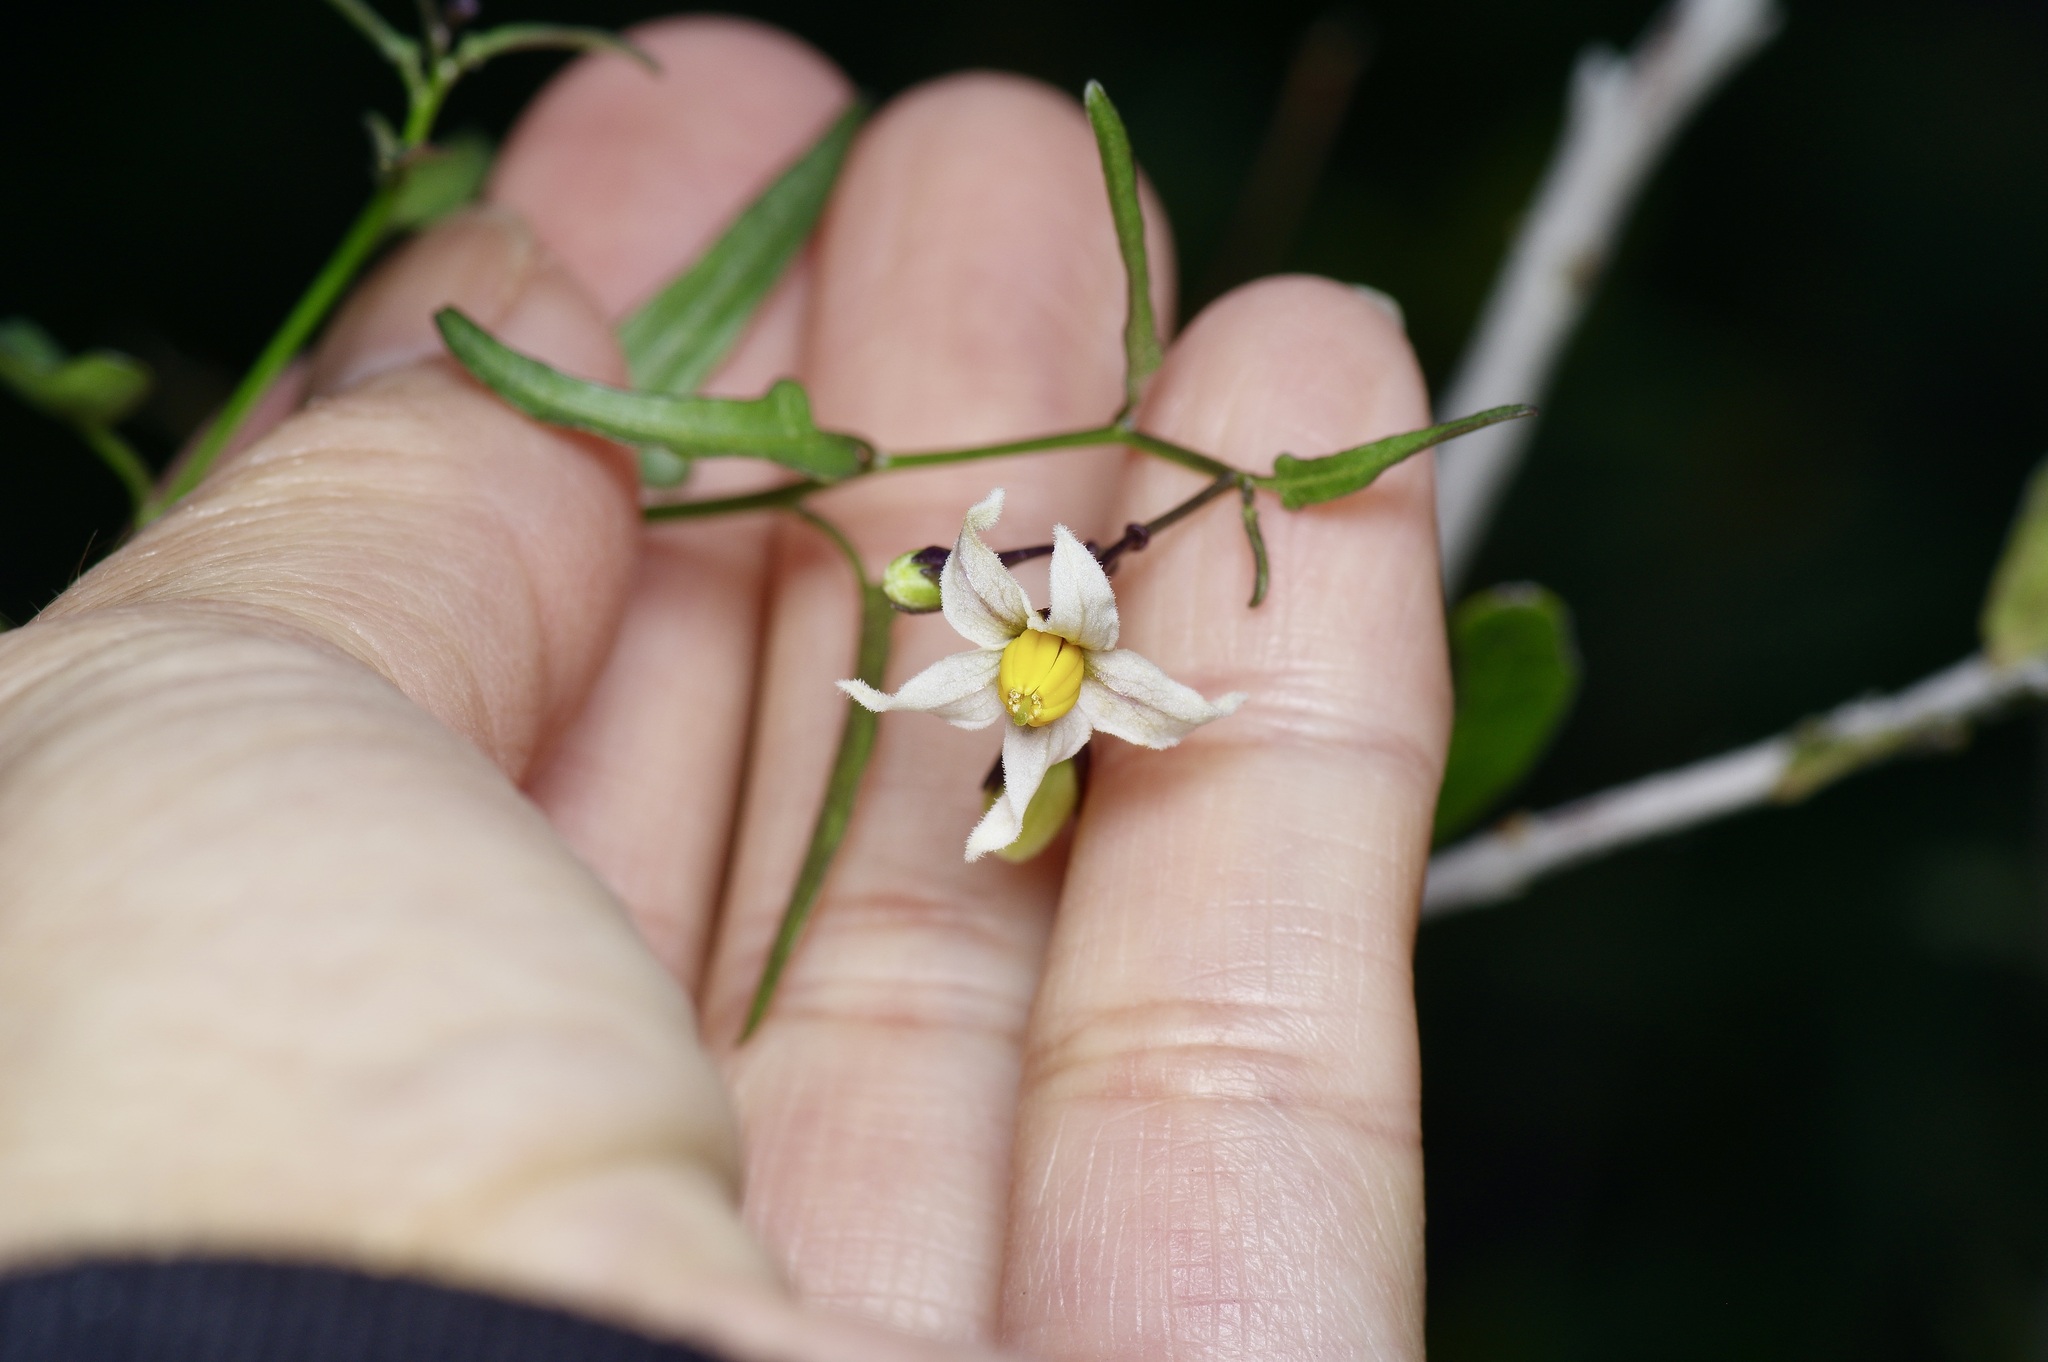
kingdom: Plantae
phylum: Tracheophyta
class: Magnoliopsida
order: Solanales
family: Solanaceae
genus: Solanum
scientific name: Solanum triquetrum
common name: Texas nightshade
